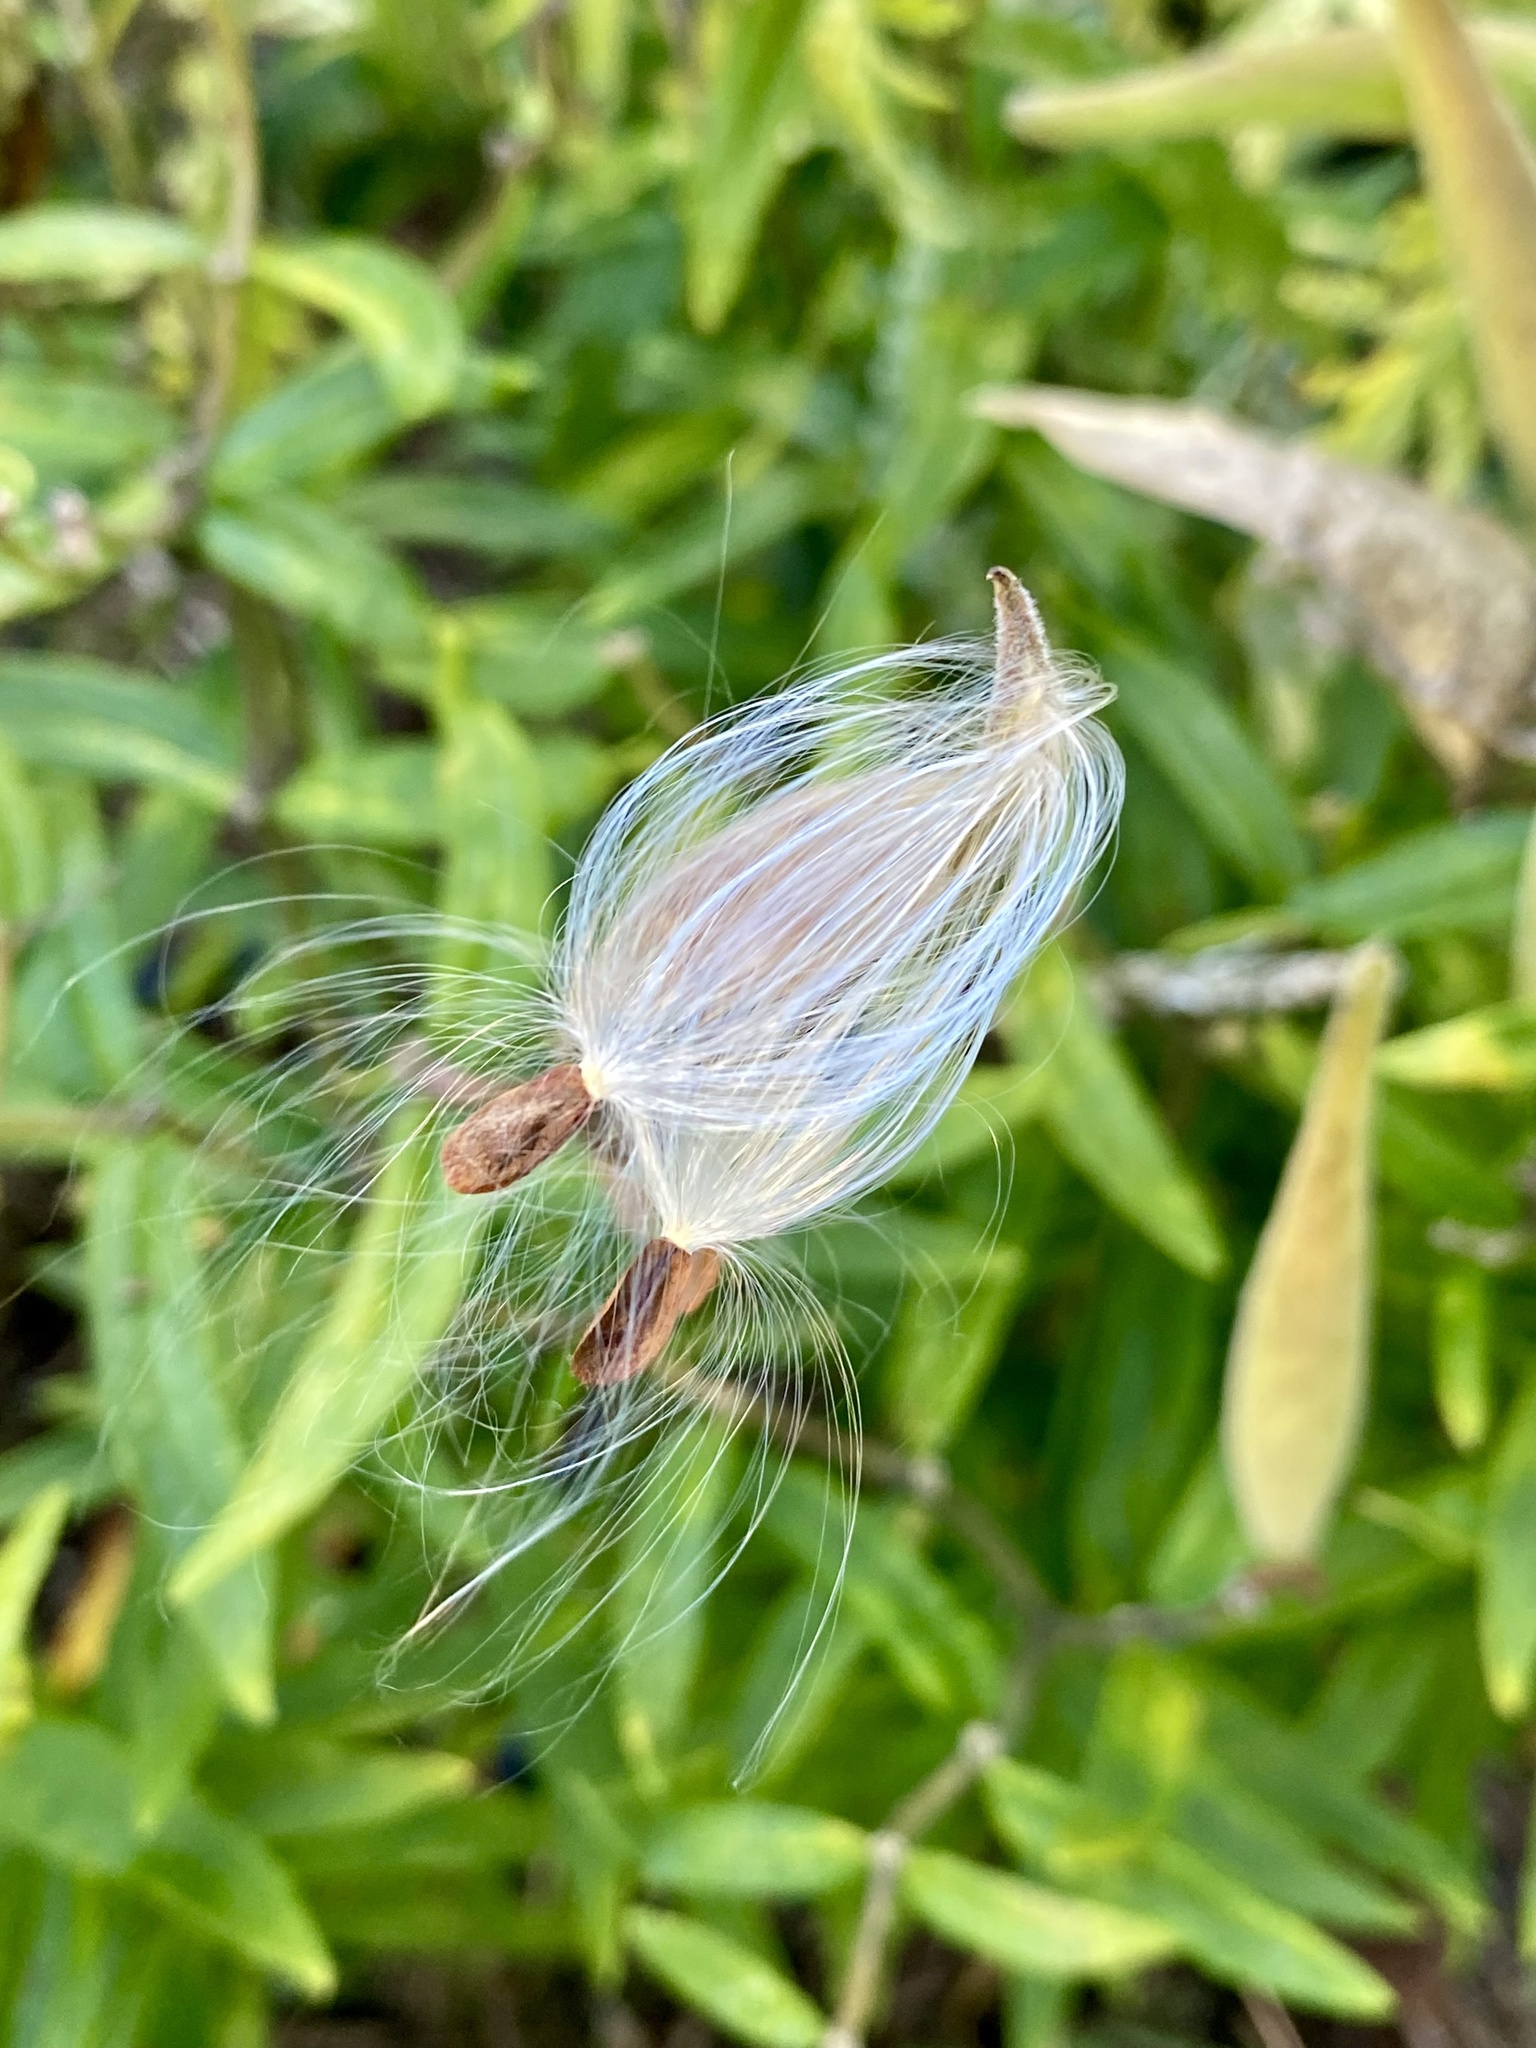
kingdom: Plantae
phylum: Tracheophyta
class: Magnoliopsida
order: Gentianales
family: Apocynaceae
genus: Asclepias
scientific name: Asclepias tuberosa
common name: Butterfly milkweed
